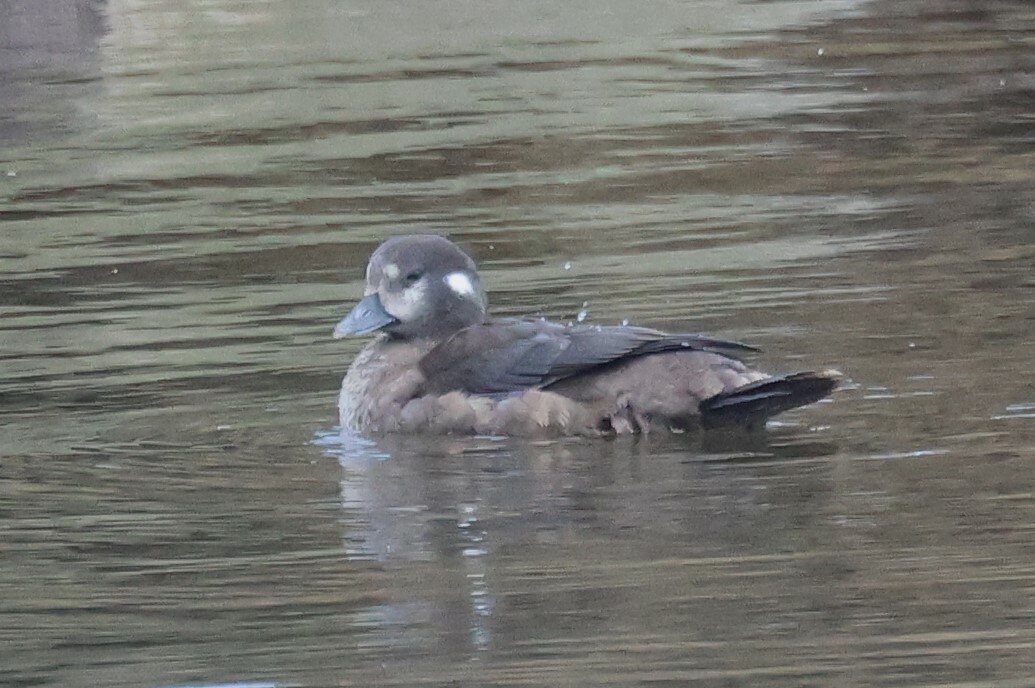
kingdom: Animalia
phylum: Chordata
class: Aves
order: Anseriformes
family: Anatidae
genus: Histrionicus
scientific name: Histrionicus histrionicus
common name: Harlequin duck
